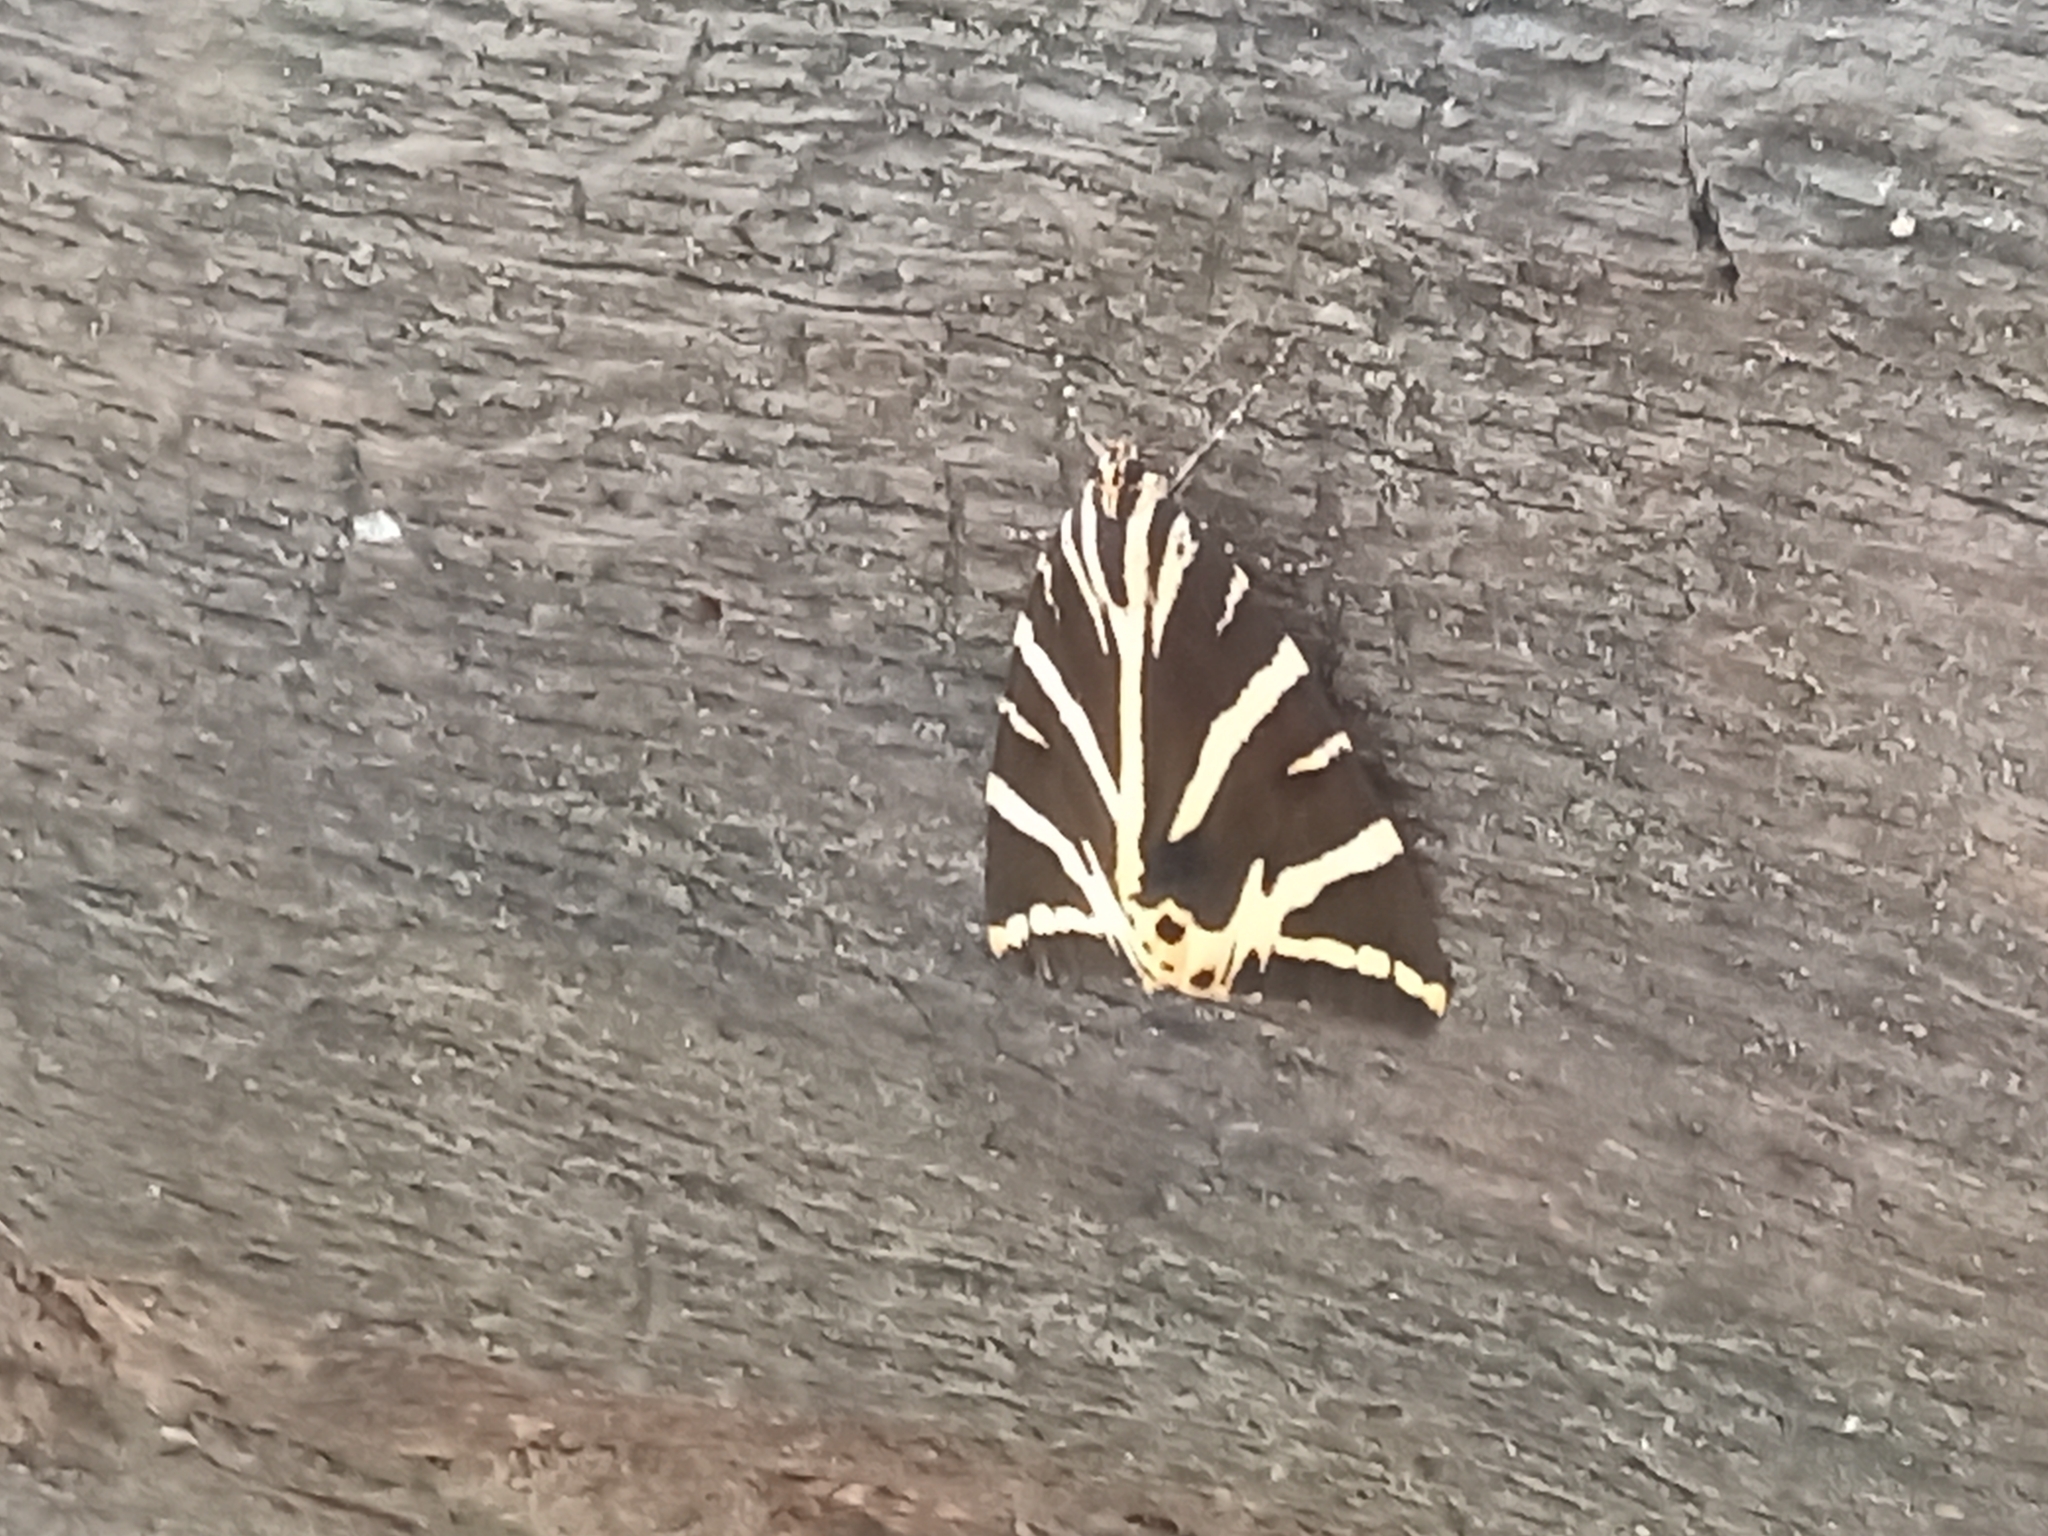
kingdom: Animalia
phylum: Arthropoda
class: Insecta
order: Lepidoptera
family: Erebidae
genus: Euplagia
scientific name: Euplagia quadripunctaria
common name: Jersey tiger
